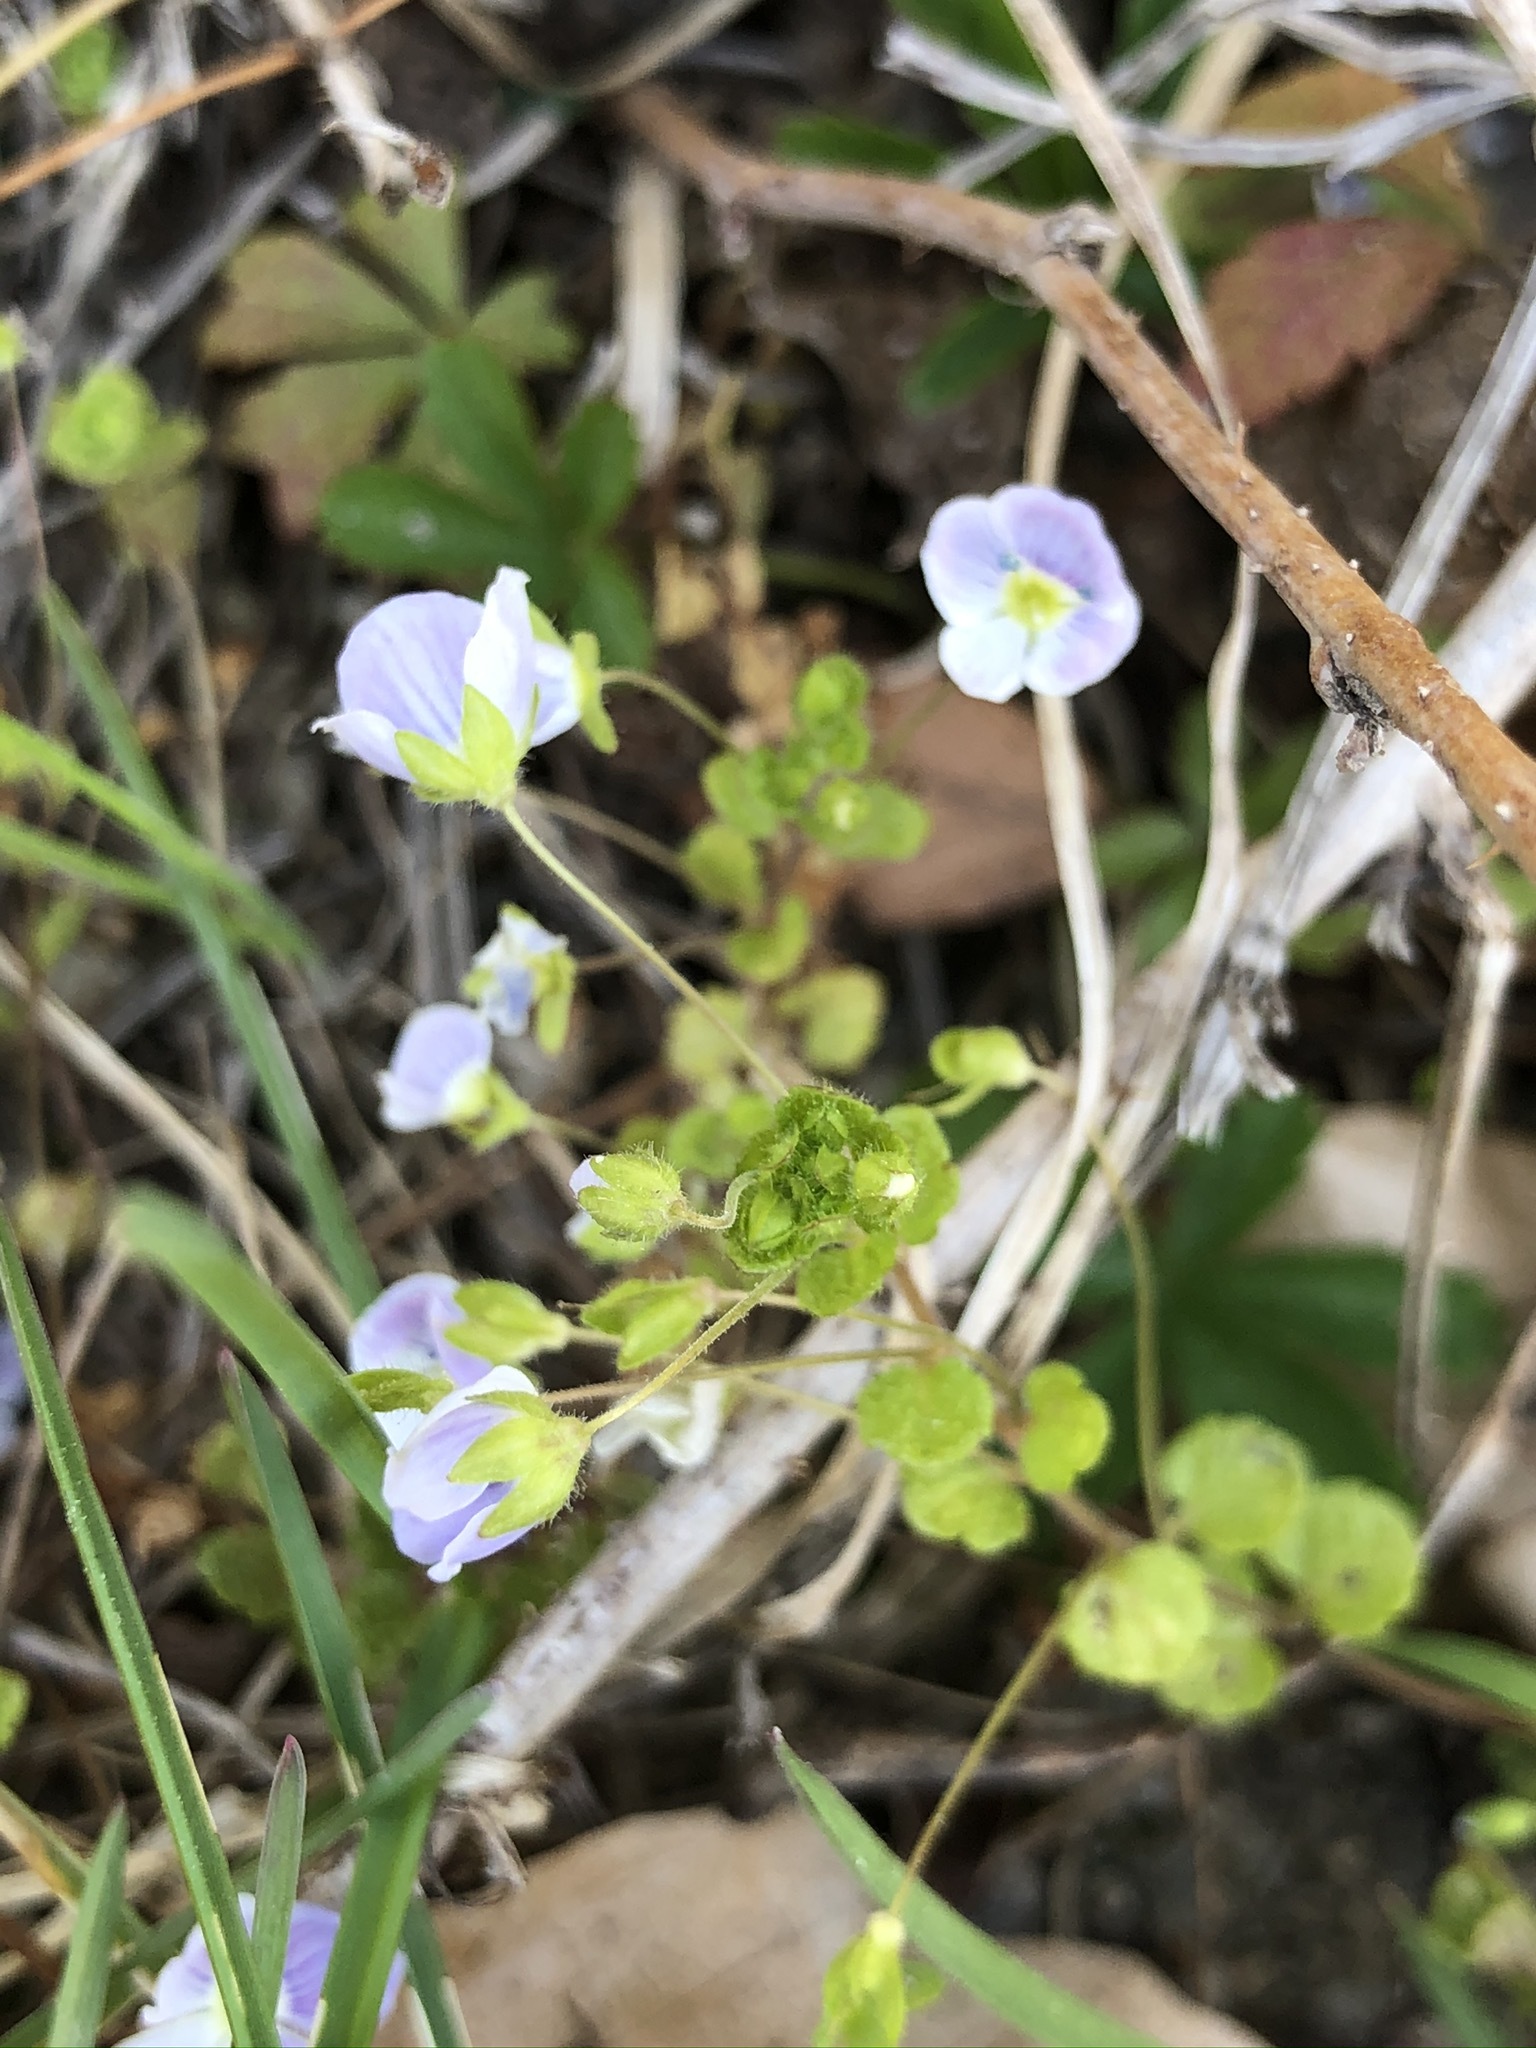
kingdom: Plantae
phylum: Tracheophyta
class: Magnoliopsida
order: Lamiales
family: Plantaginaceae
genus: Veronica
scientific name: Veronica filiformis
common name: Slender speedwell
